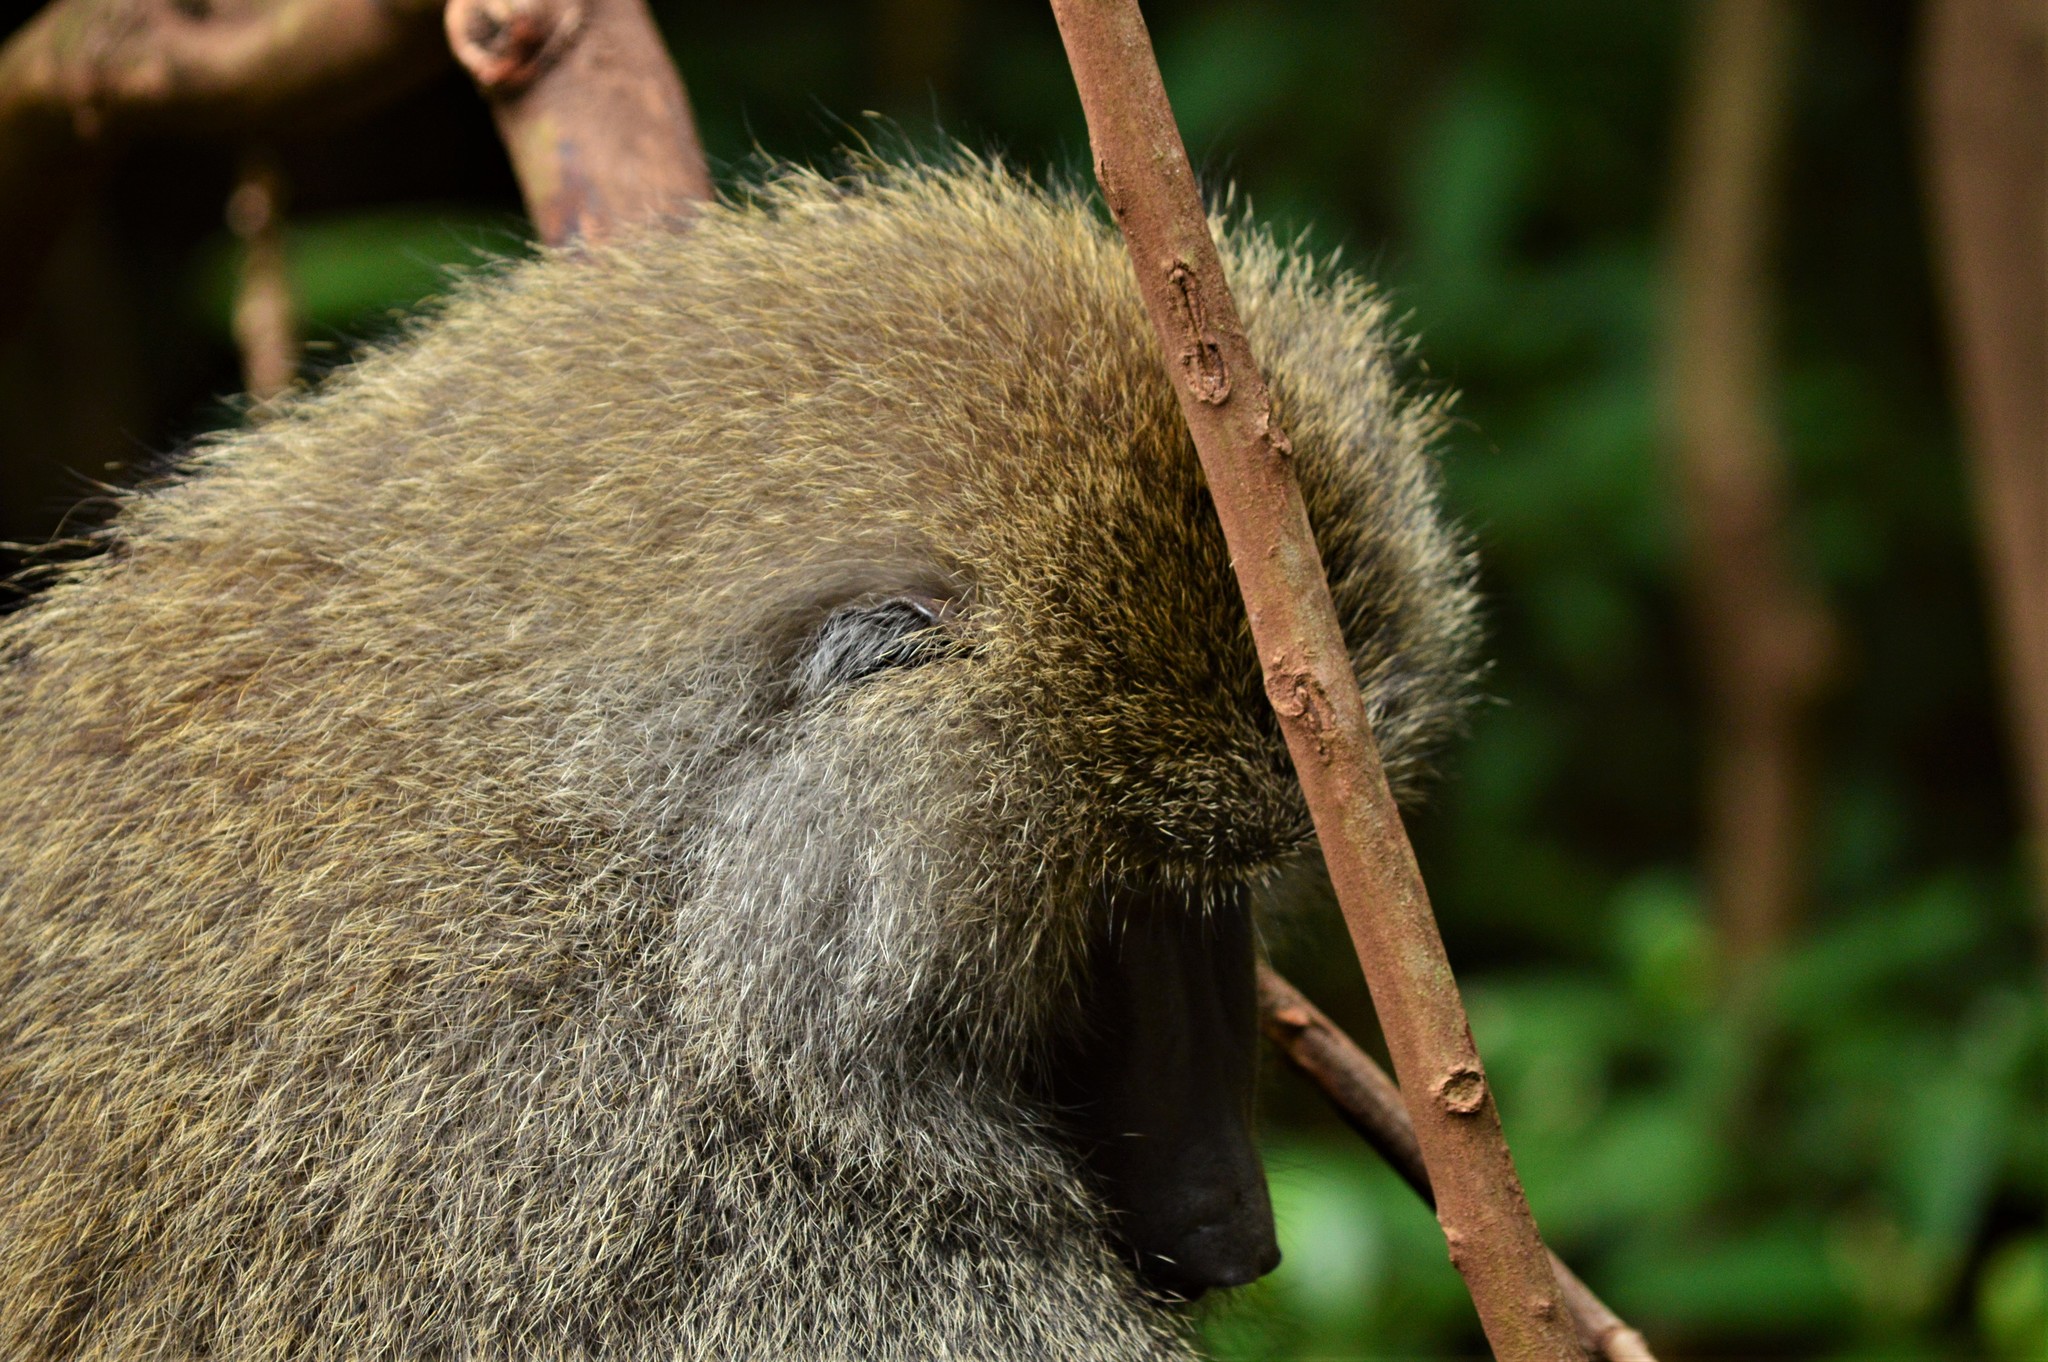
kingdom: Animalia
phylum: Chordata
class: Mammalia
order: Primates
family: Cercopithecidae
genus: Papio
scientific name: Papio anubis
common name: Olive baboon
